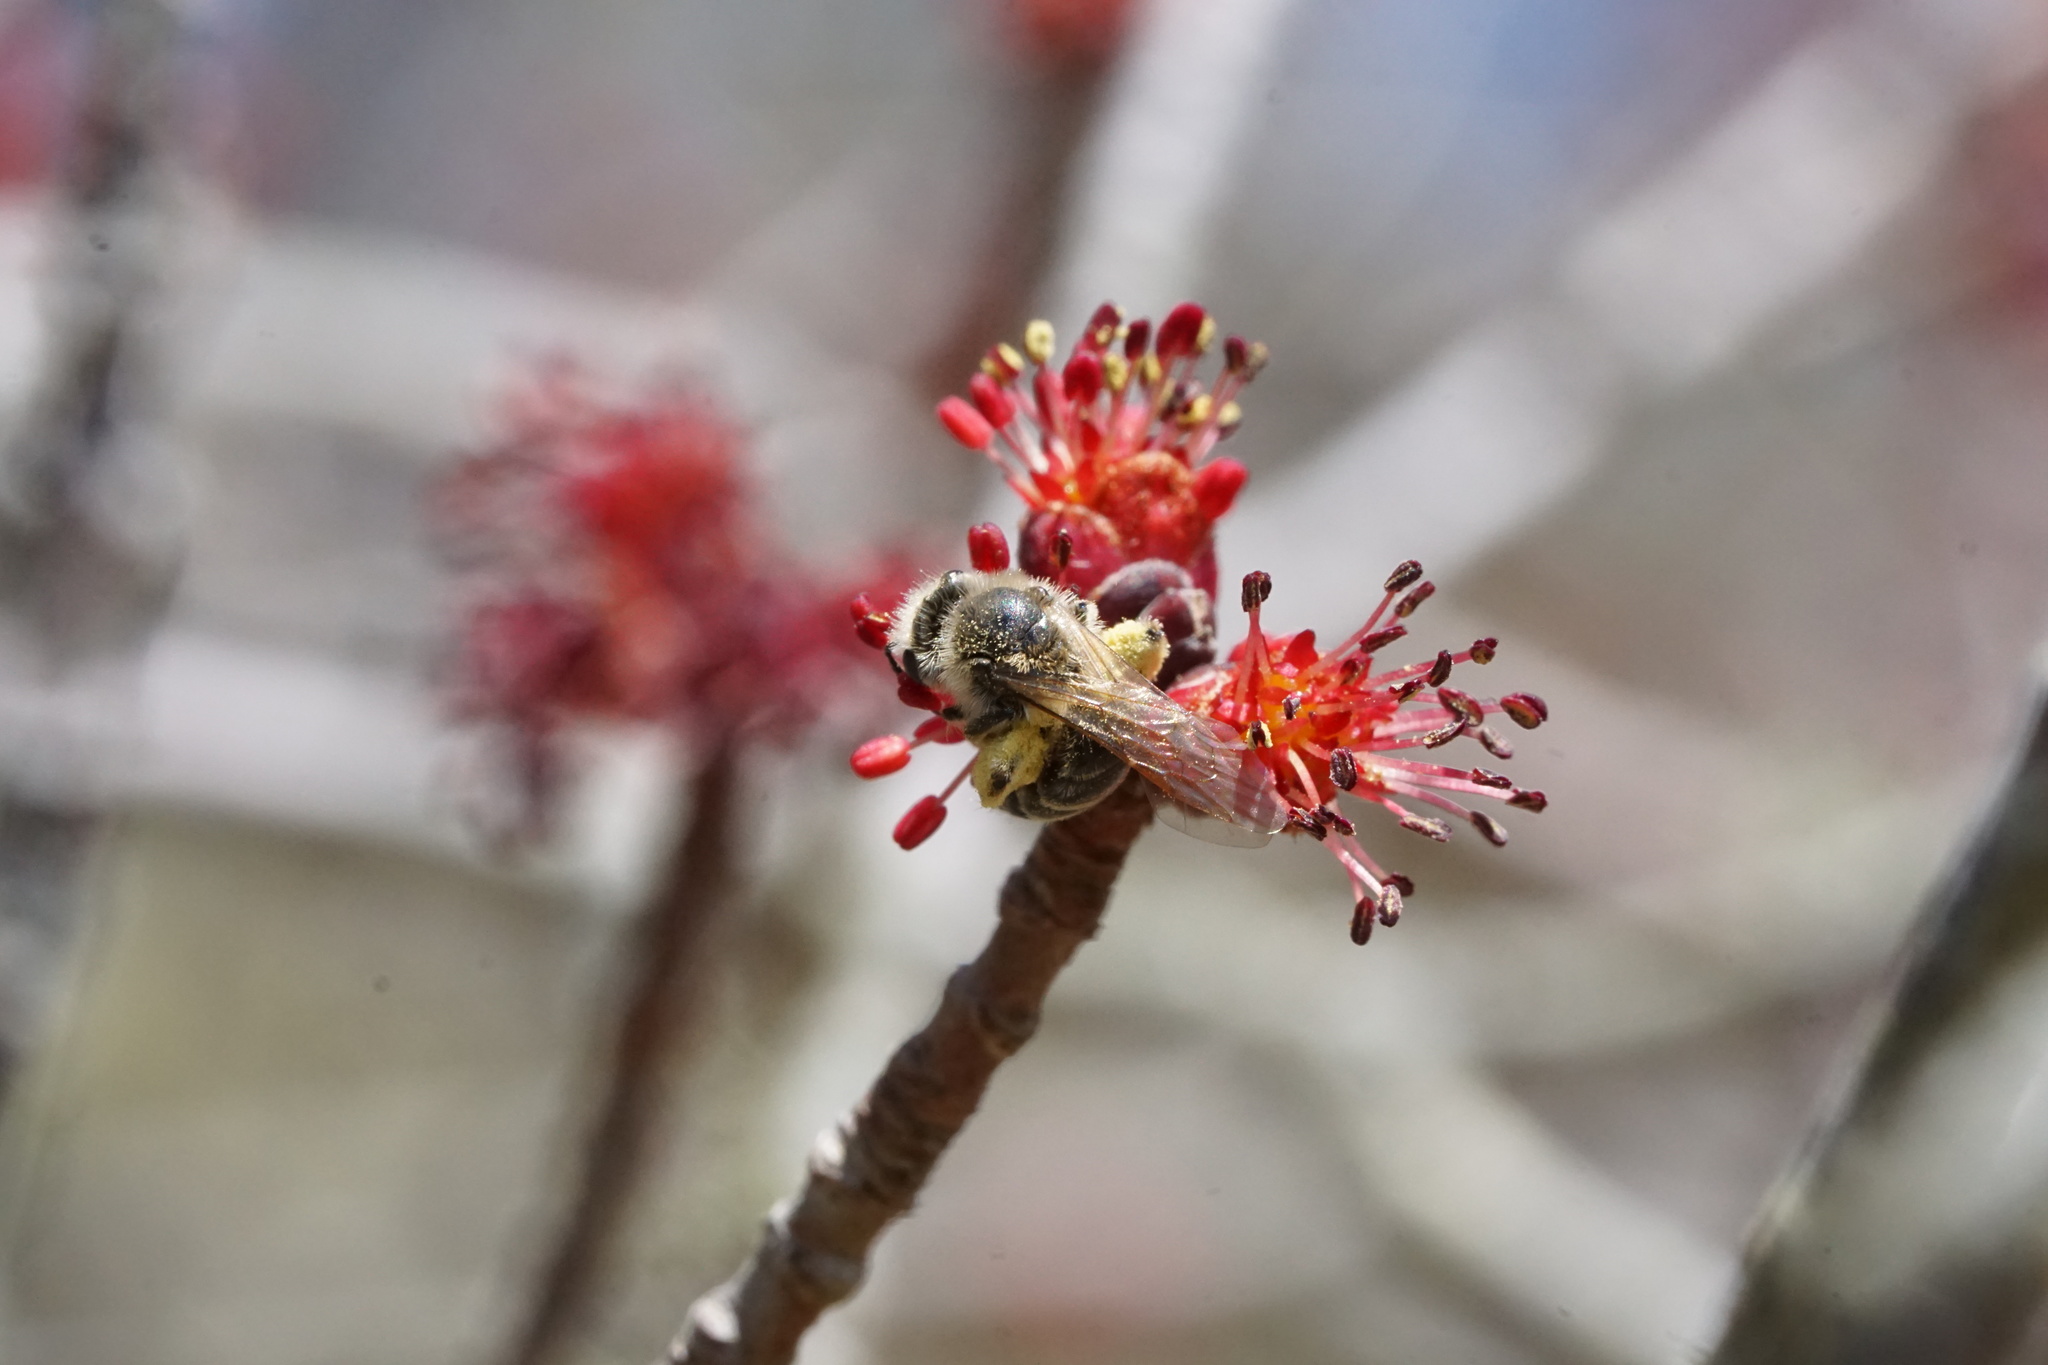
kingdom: Animalia
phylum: Arthropoda
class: Insecta
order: Hymenoptera
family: Colletidae
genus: Colletes
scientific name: Colletes inaequalis
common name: Unequal cellophane bee
